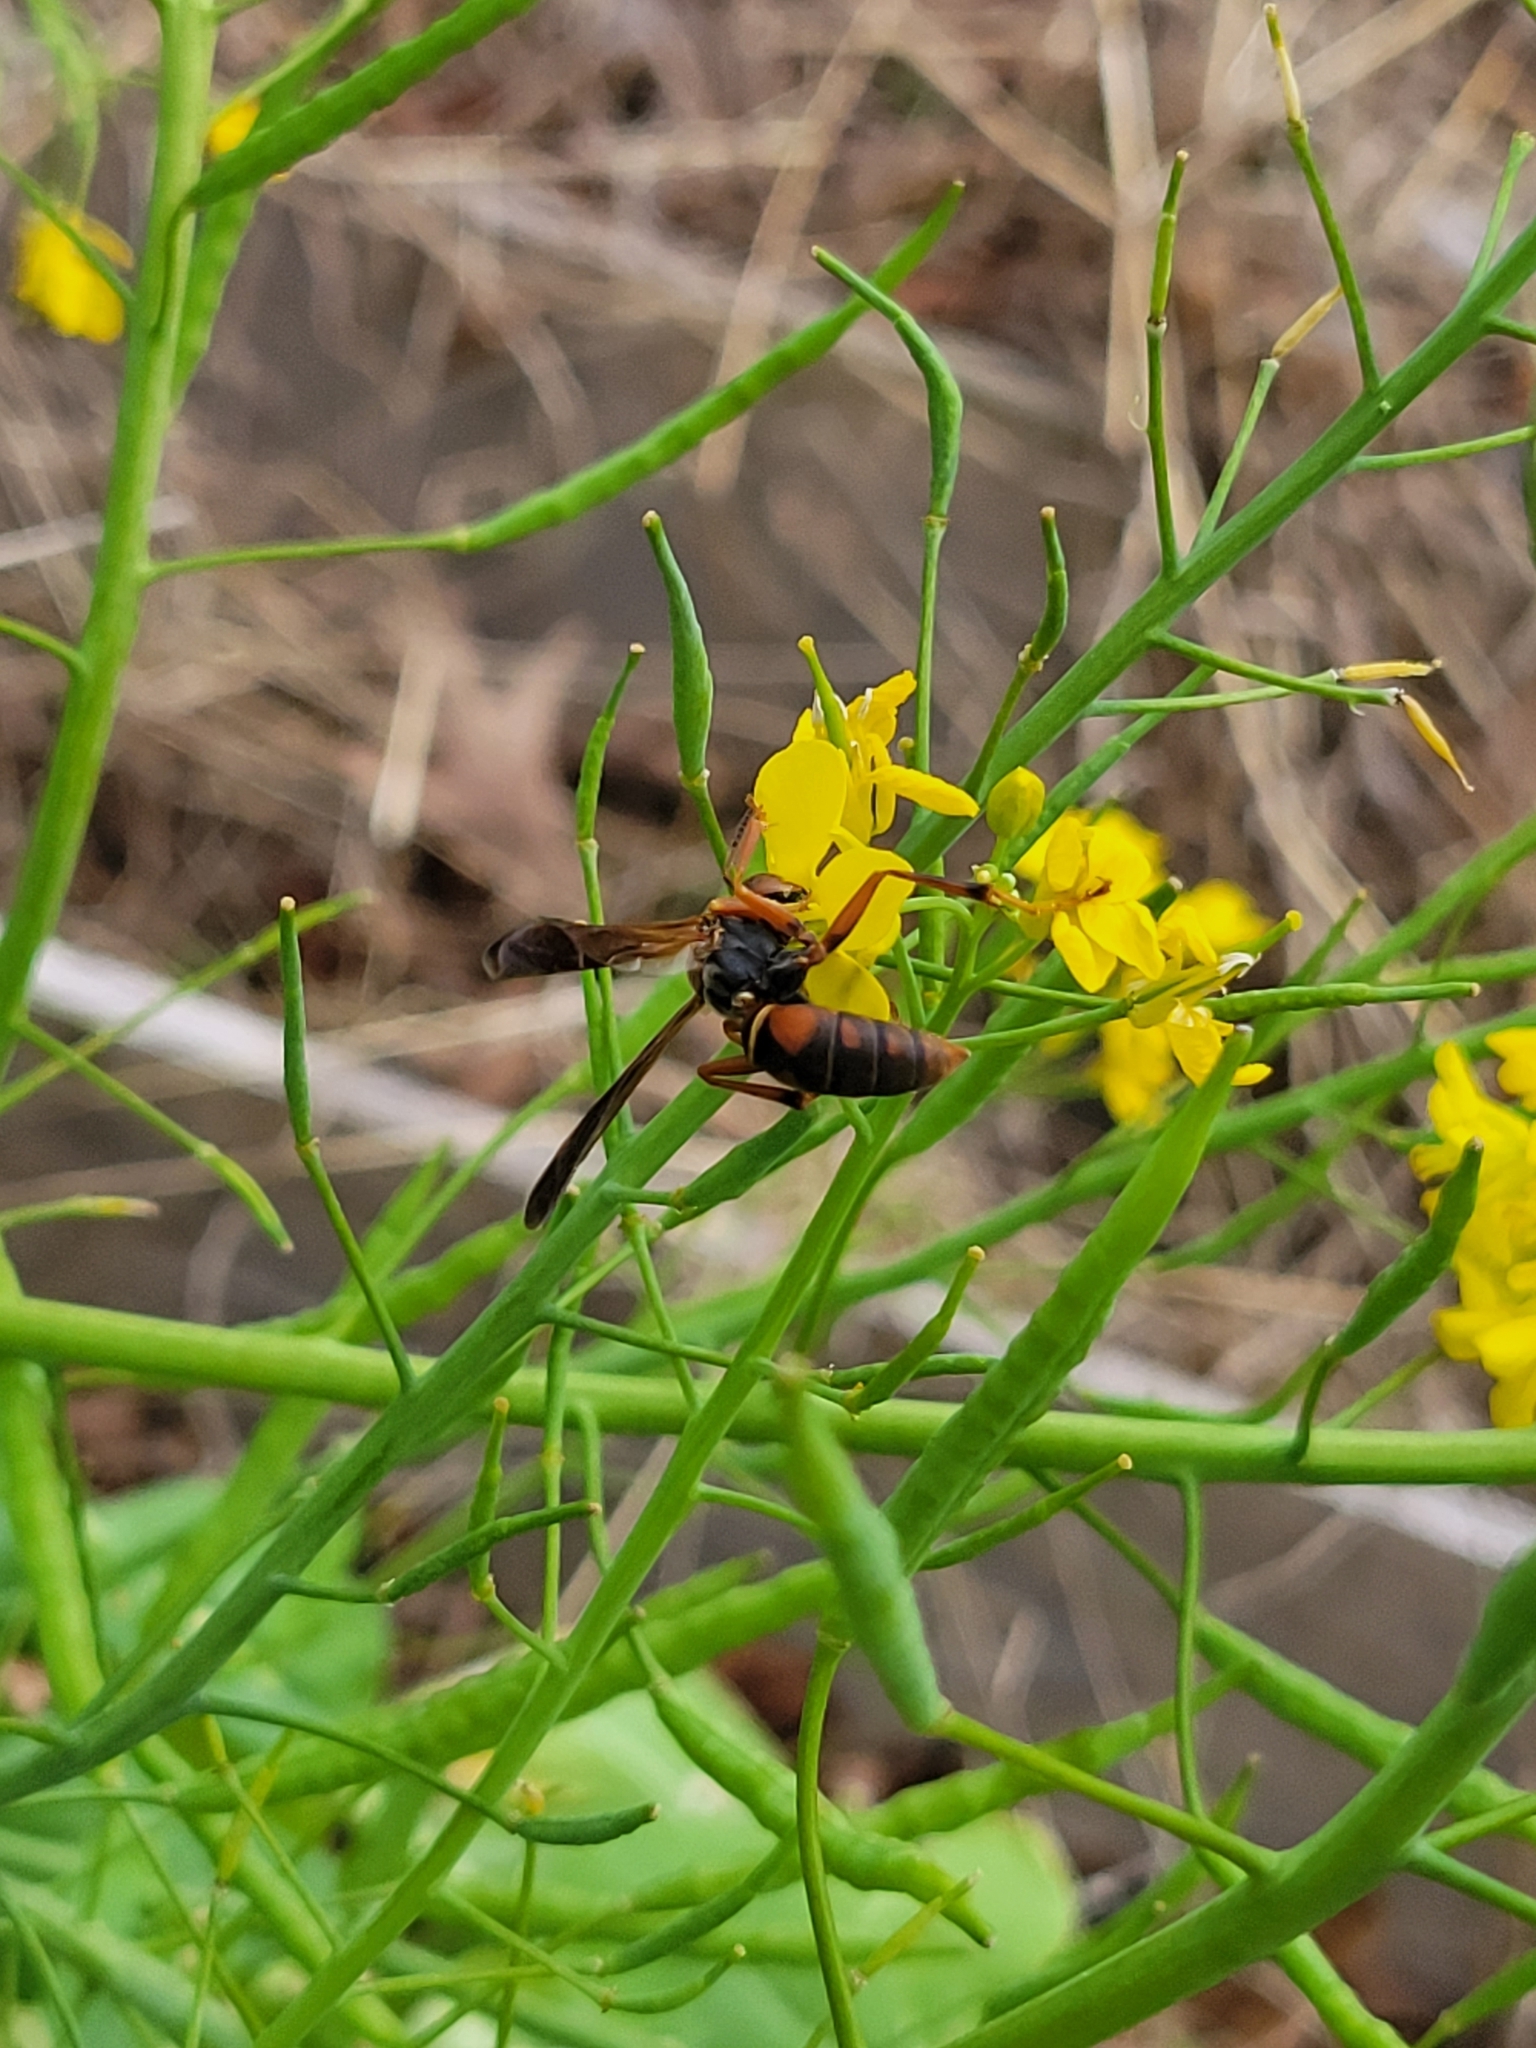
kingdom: Animalia
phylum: Arthropoda
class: Insecta
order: Hymenoptera
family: Eumenidae
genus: Polistes
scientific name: Polistes fuscatus
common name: Dark paper wasp
